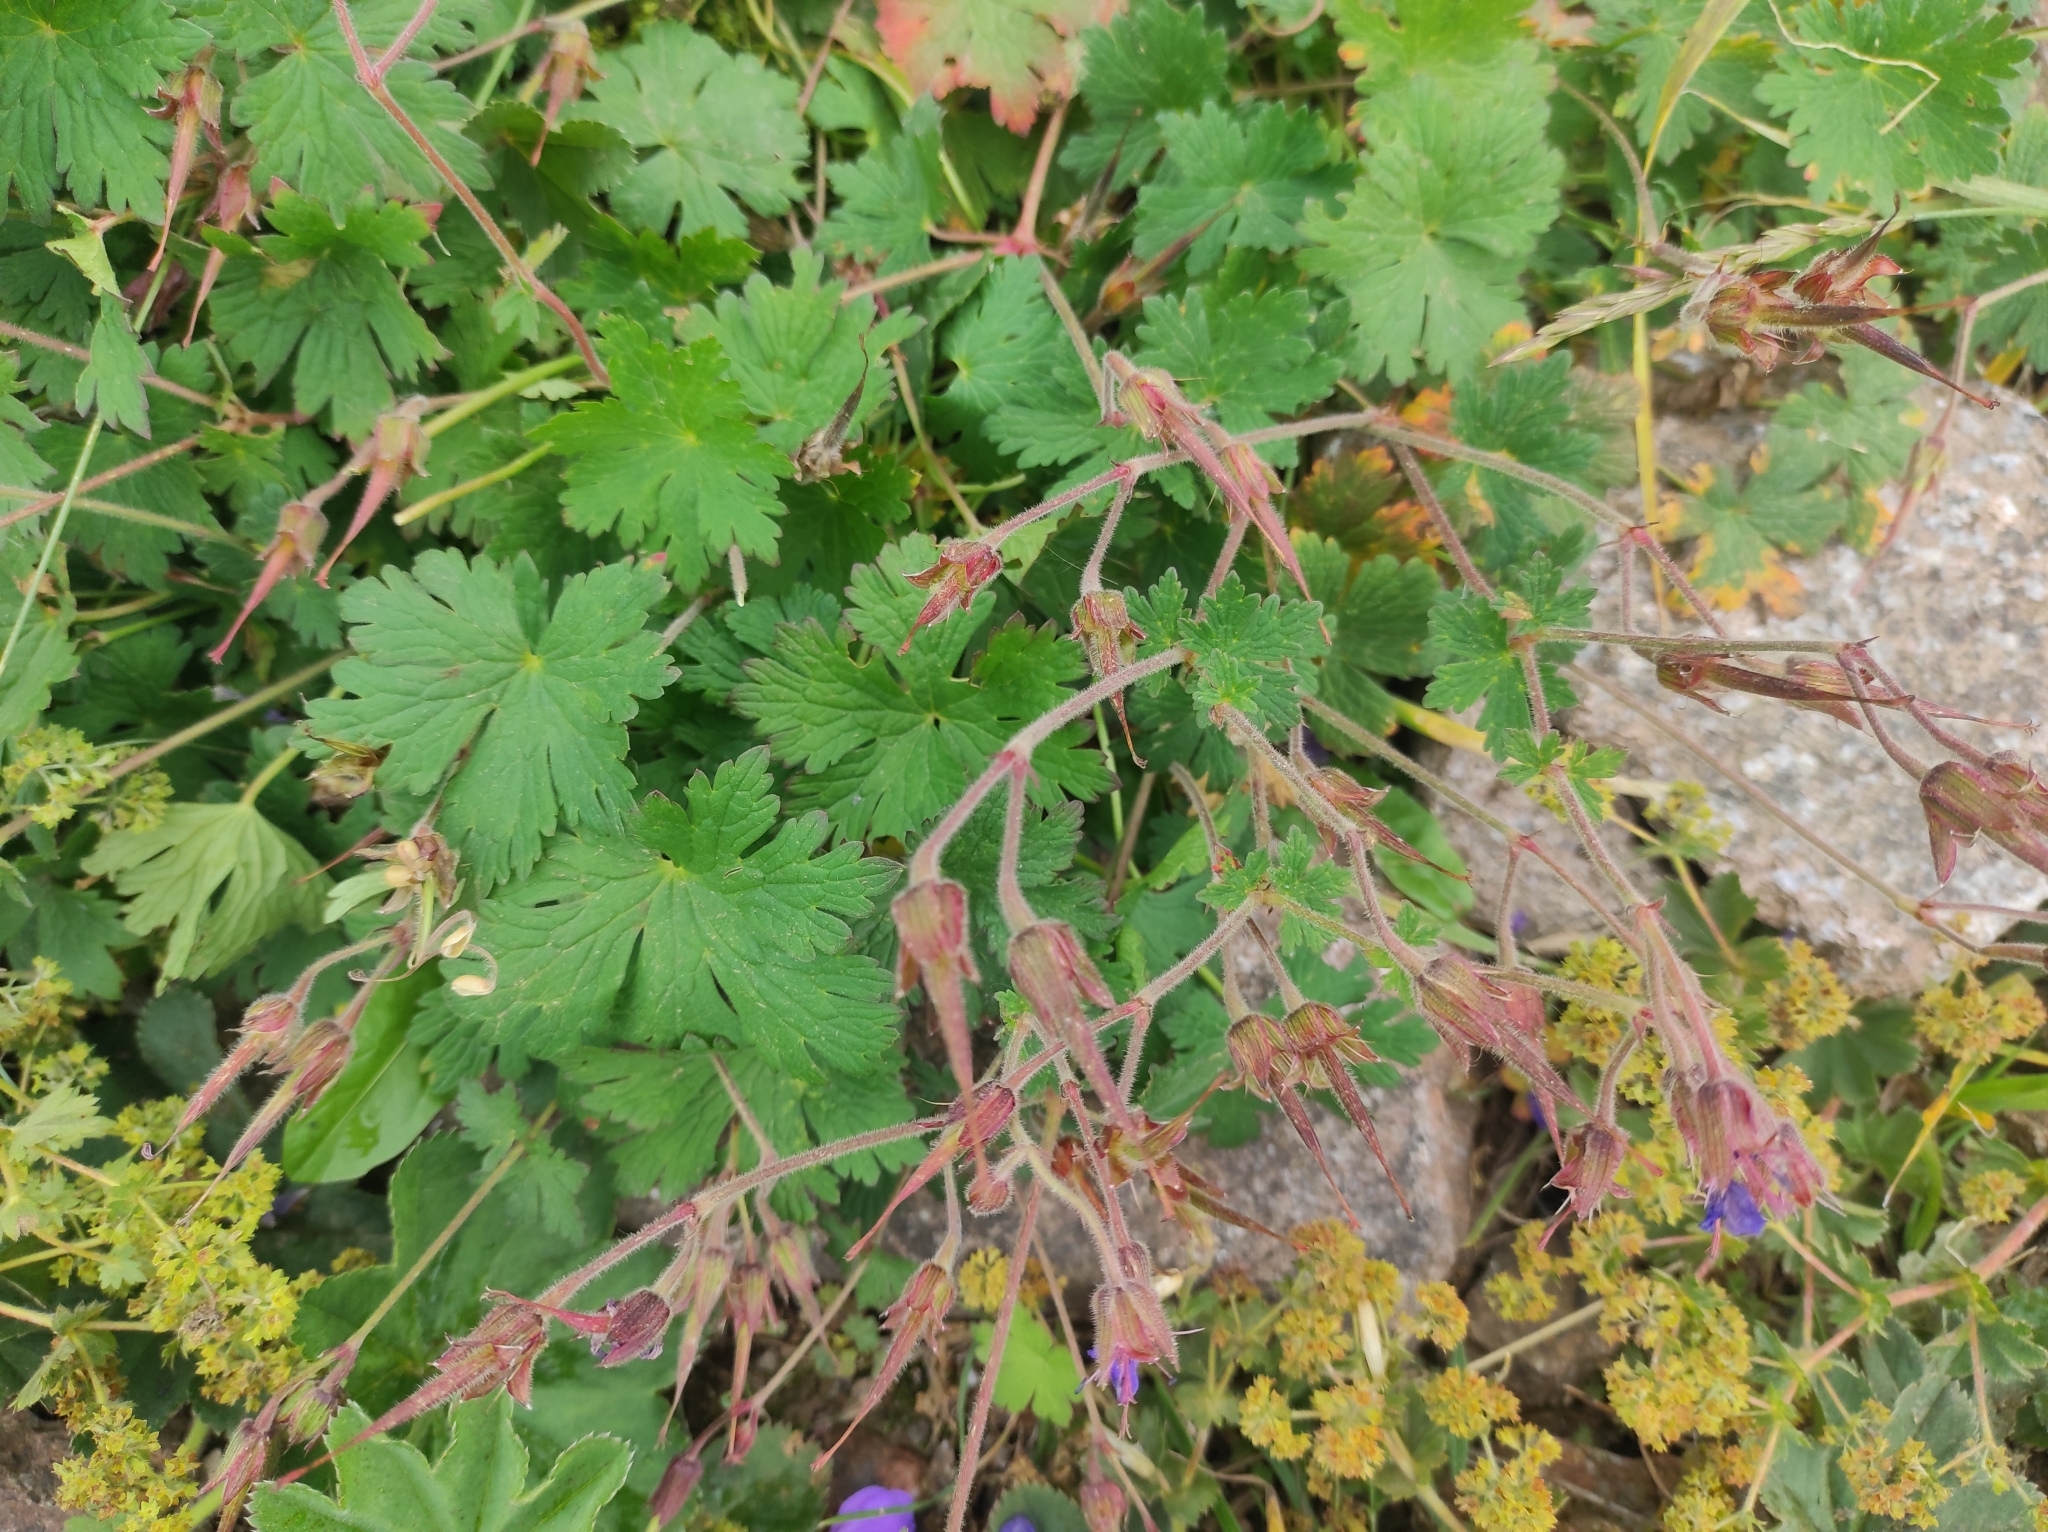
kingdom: Plantae
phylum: Tracheophyta
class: Magnoliopsida
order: Geraniales
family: Geraniaceae
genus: Geranium
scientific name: Geranium saxatile
